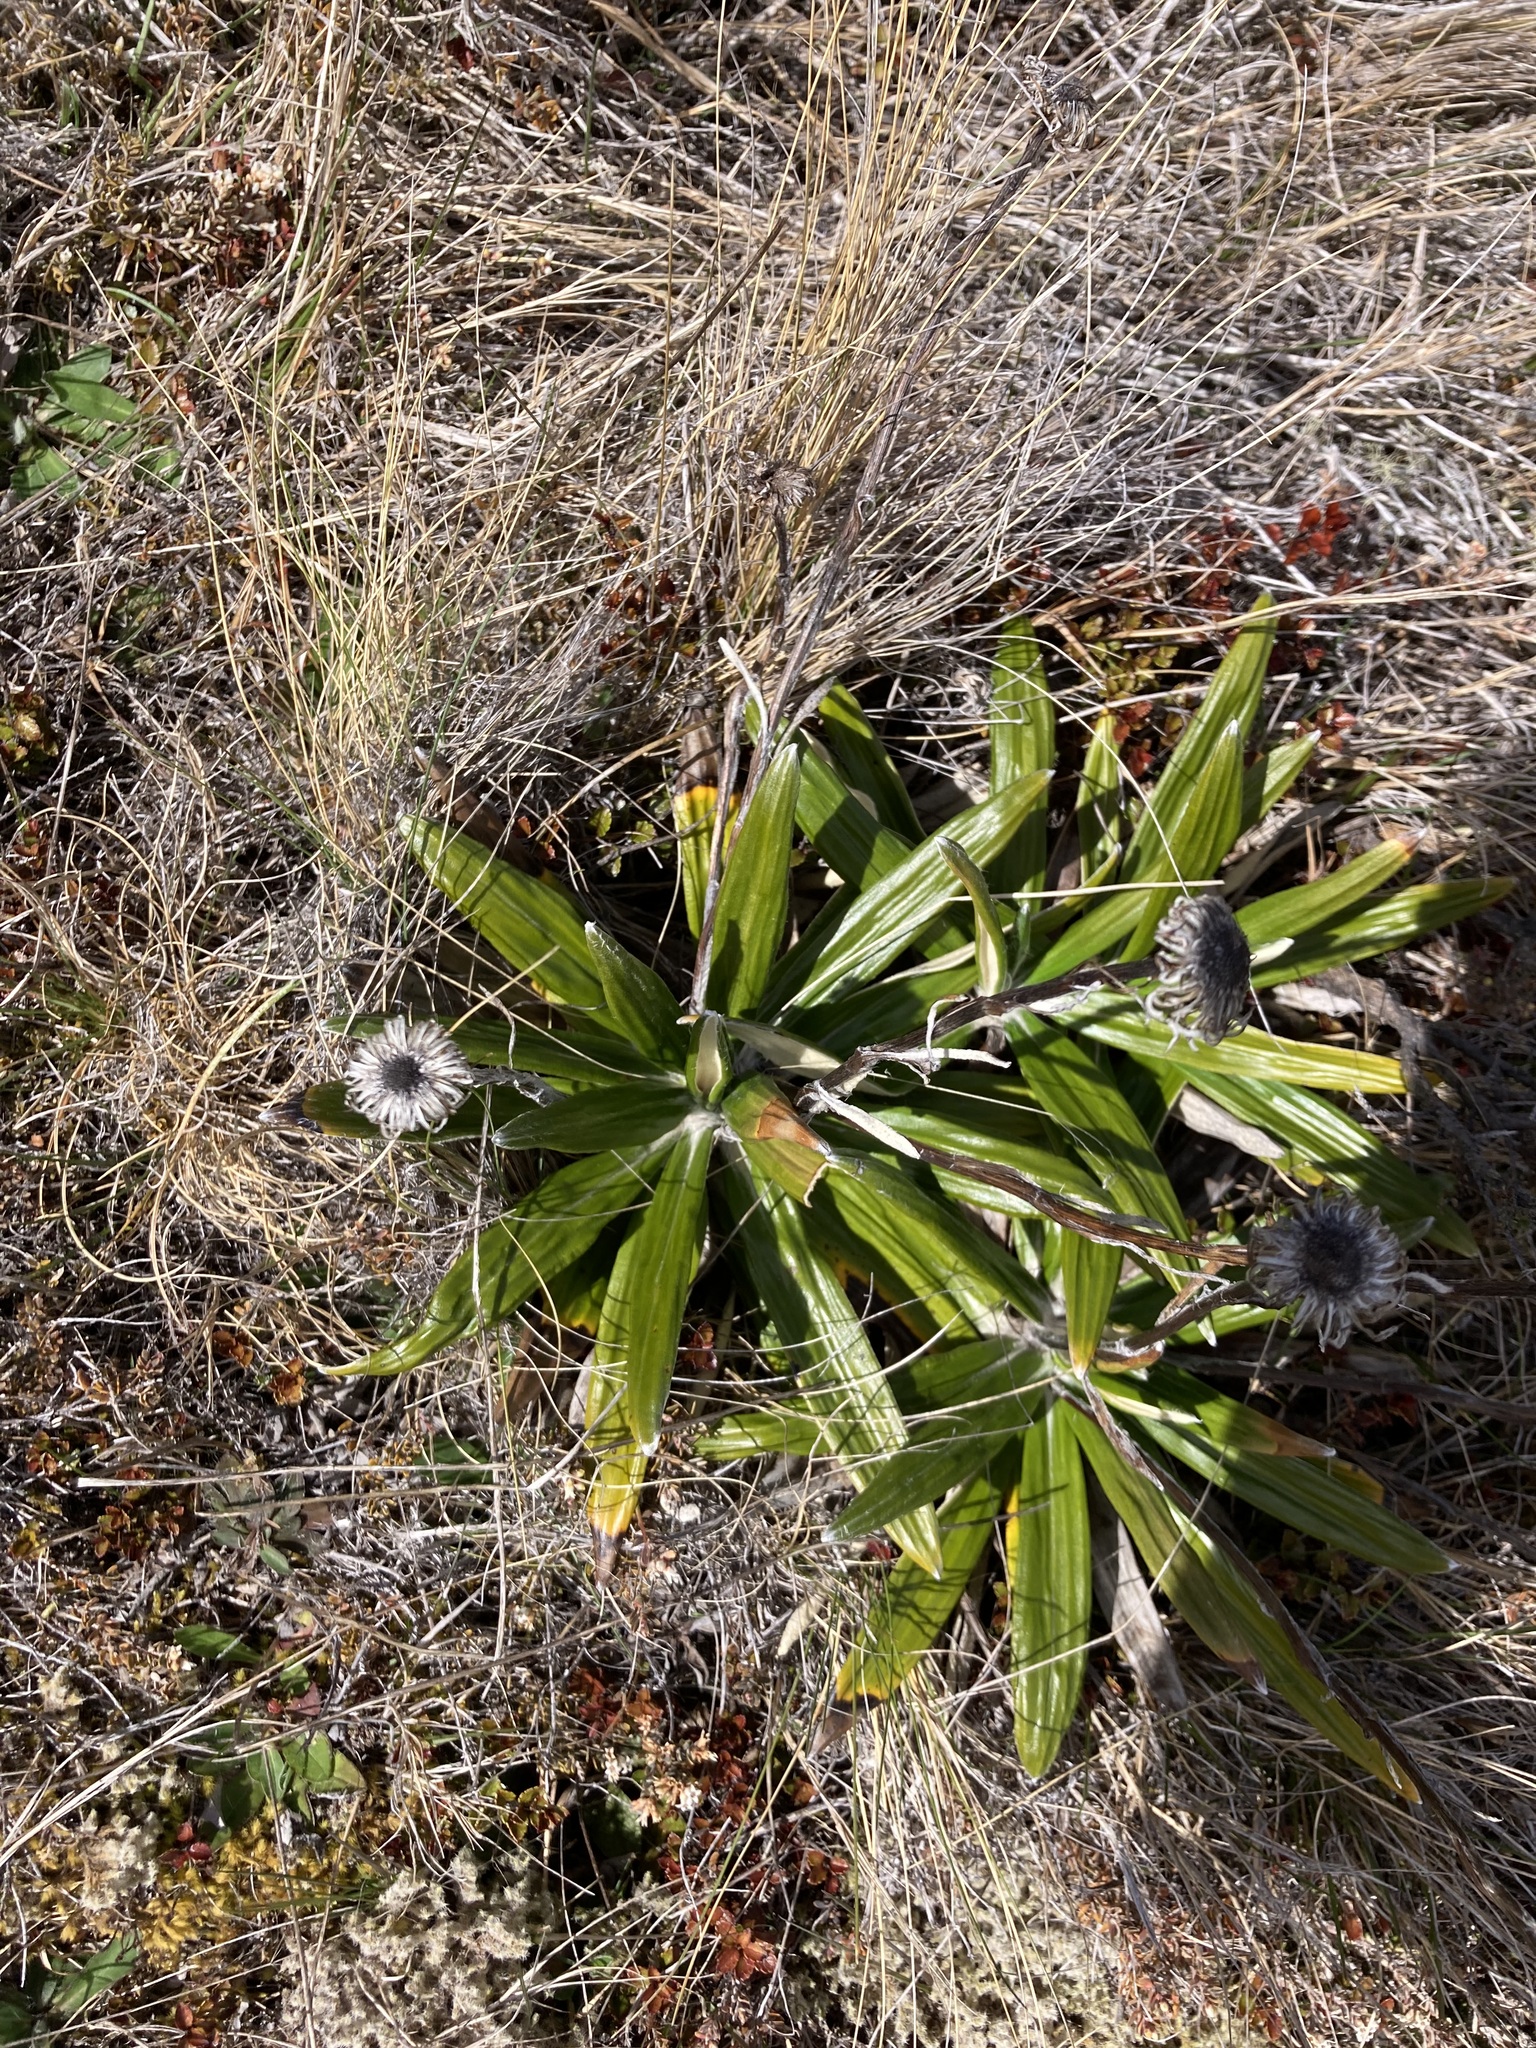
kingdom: Plantae
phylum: Tracheophyta
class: Magnoliopsida
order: Asterales
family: Asteraceae
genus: Celmisia
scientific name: Celmisia spectabilis
